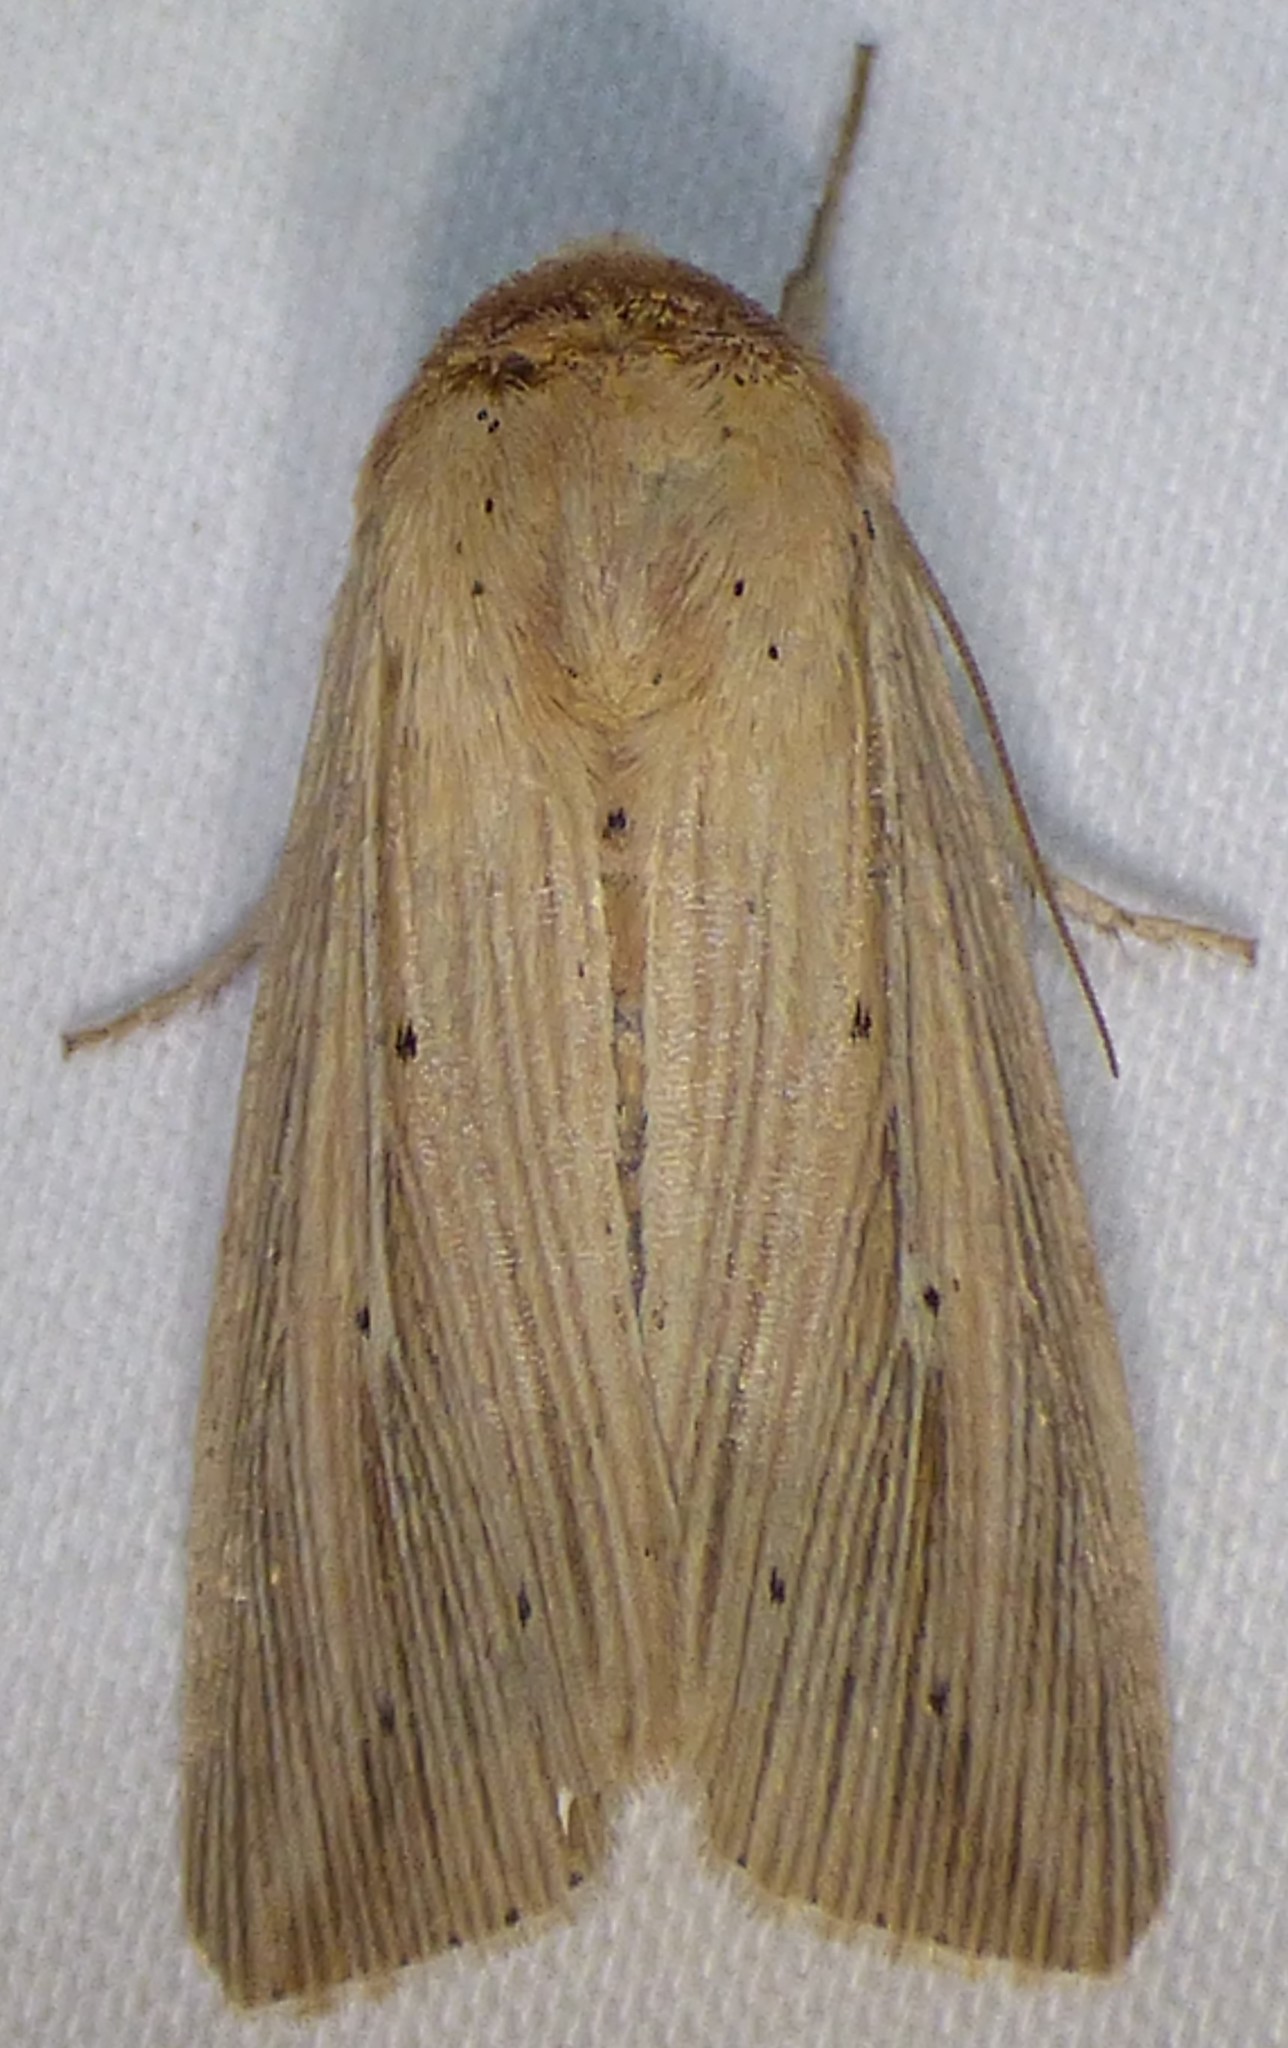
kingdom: Animalia
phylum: Arthropoda
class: Insecta
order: Lepidoptera
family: Noctuidae
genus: Leucania
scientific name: Leucania adjuta
